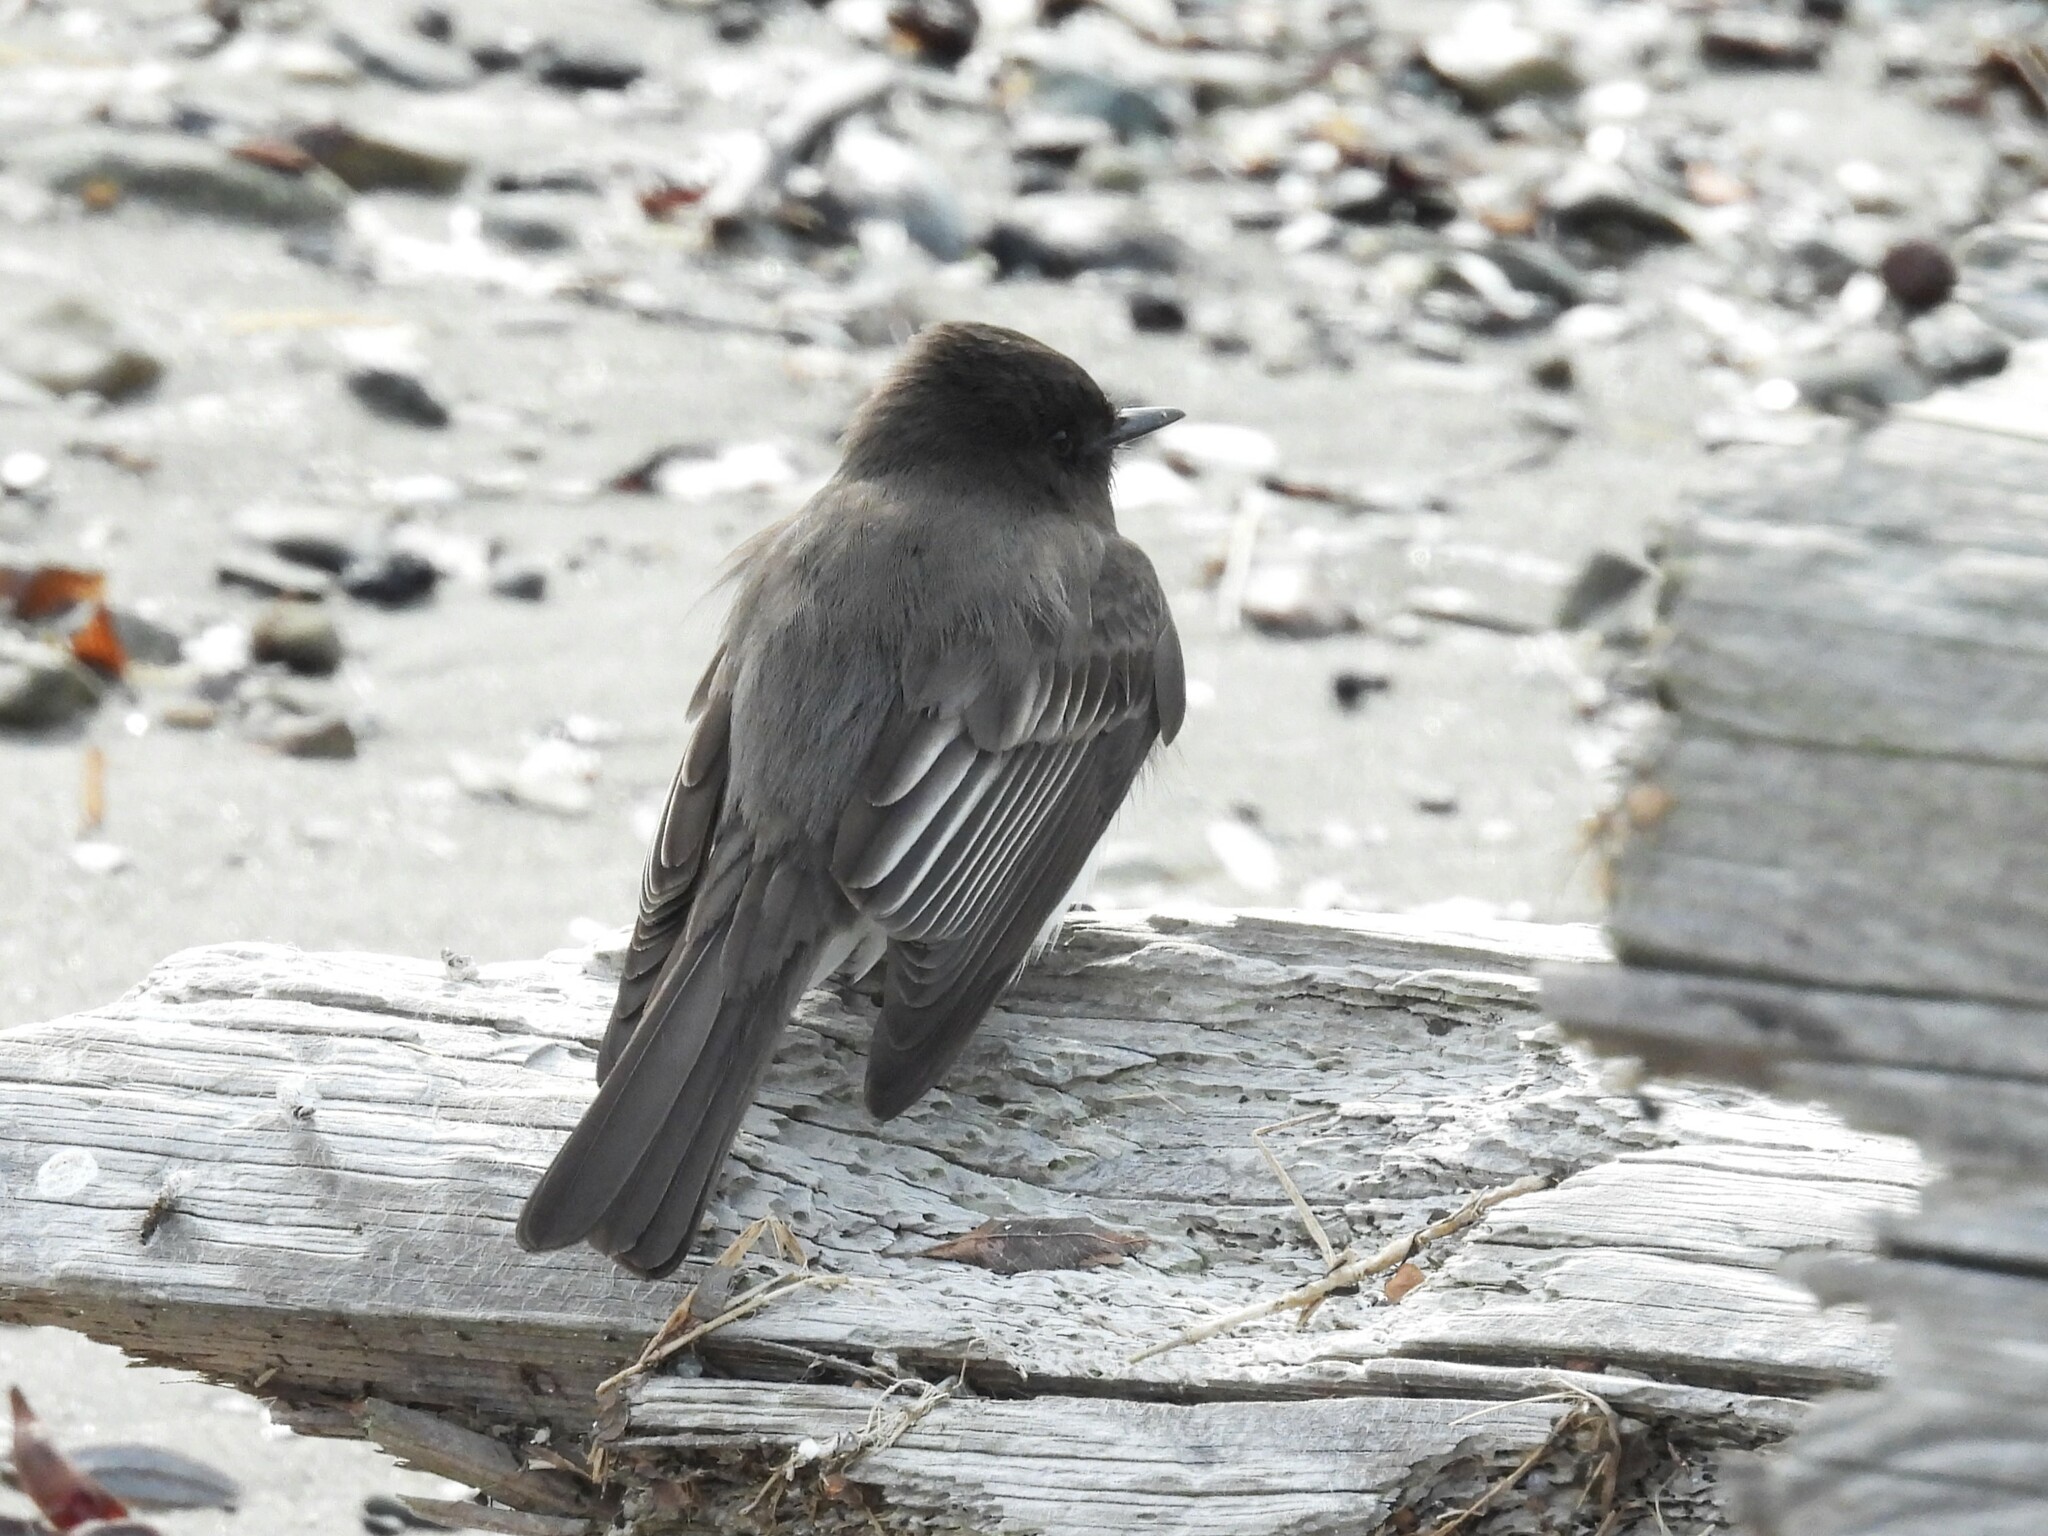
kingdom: Animalia
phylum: Chordata
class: Aves
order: Passeriformes
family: Tyrannidae
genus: Sayornis
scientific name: Sayornis nigricans
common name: Black phoebe
